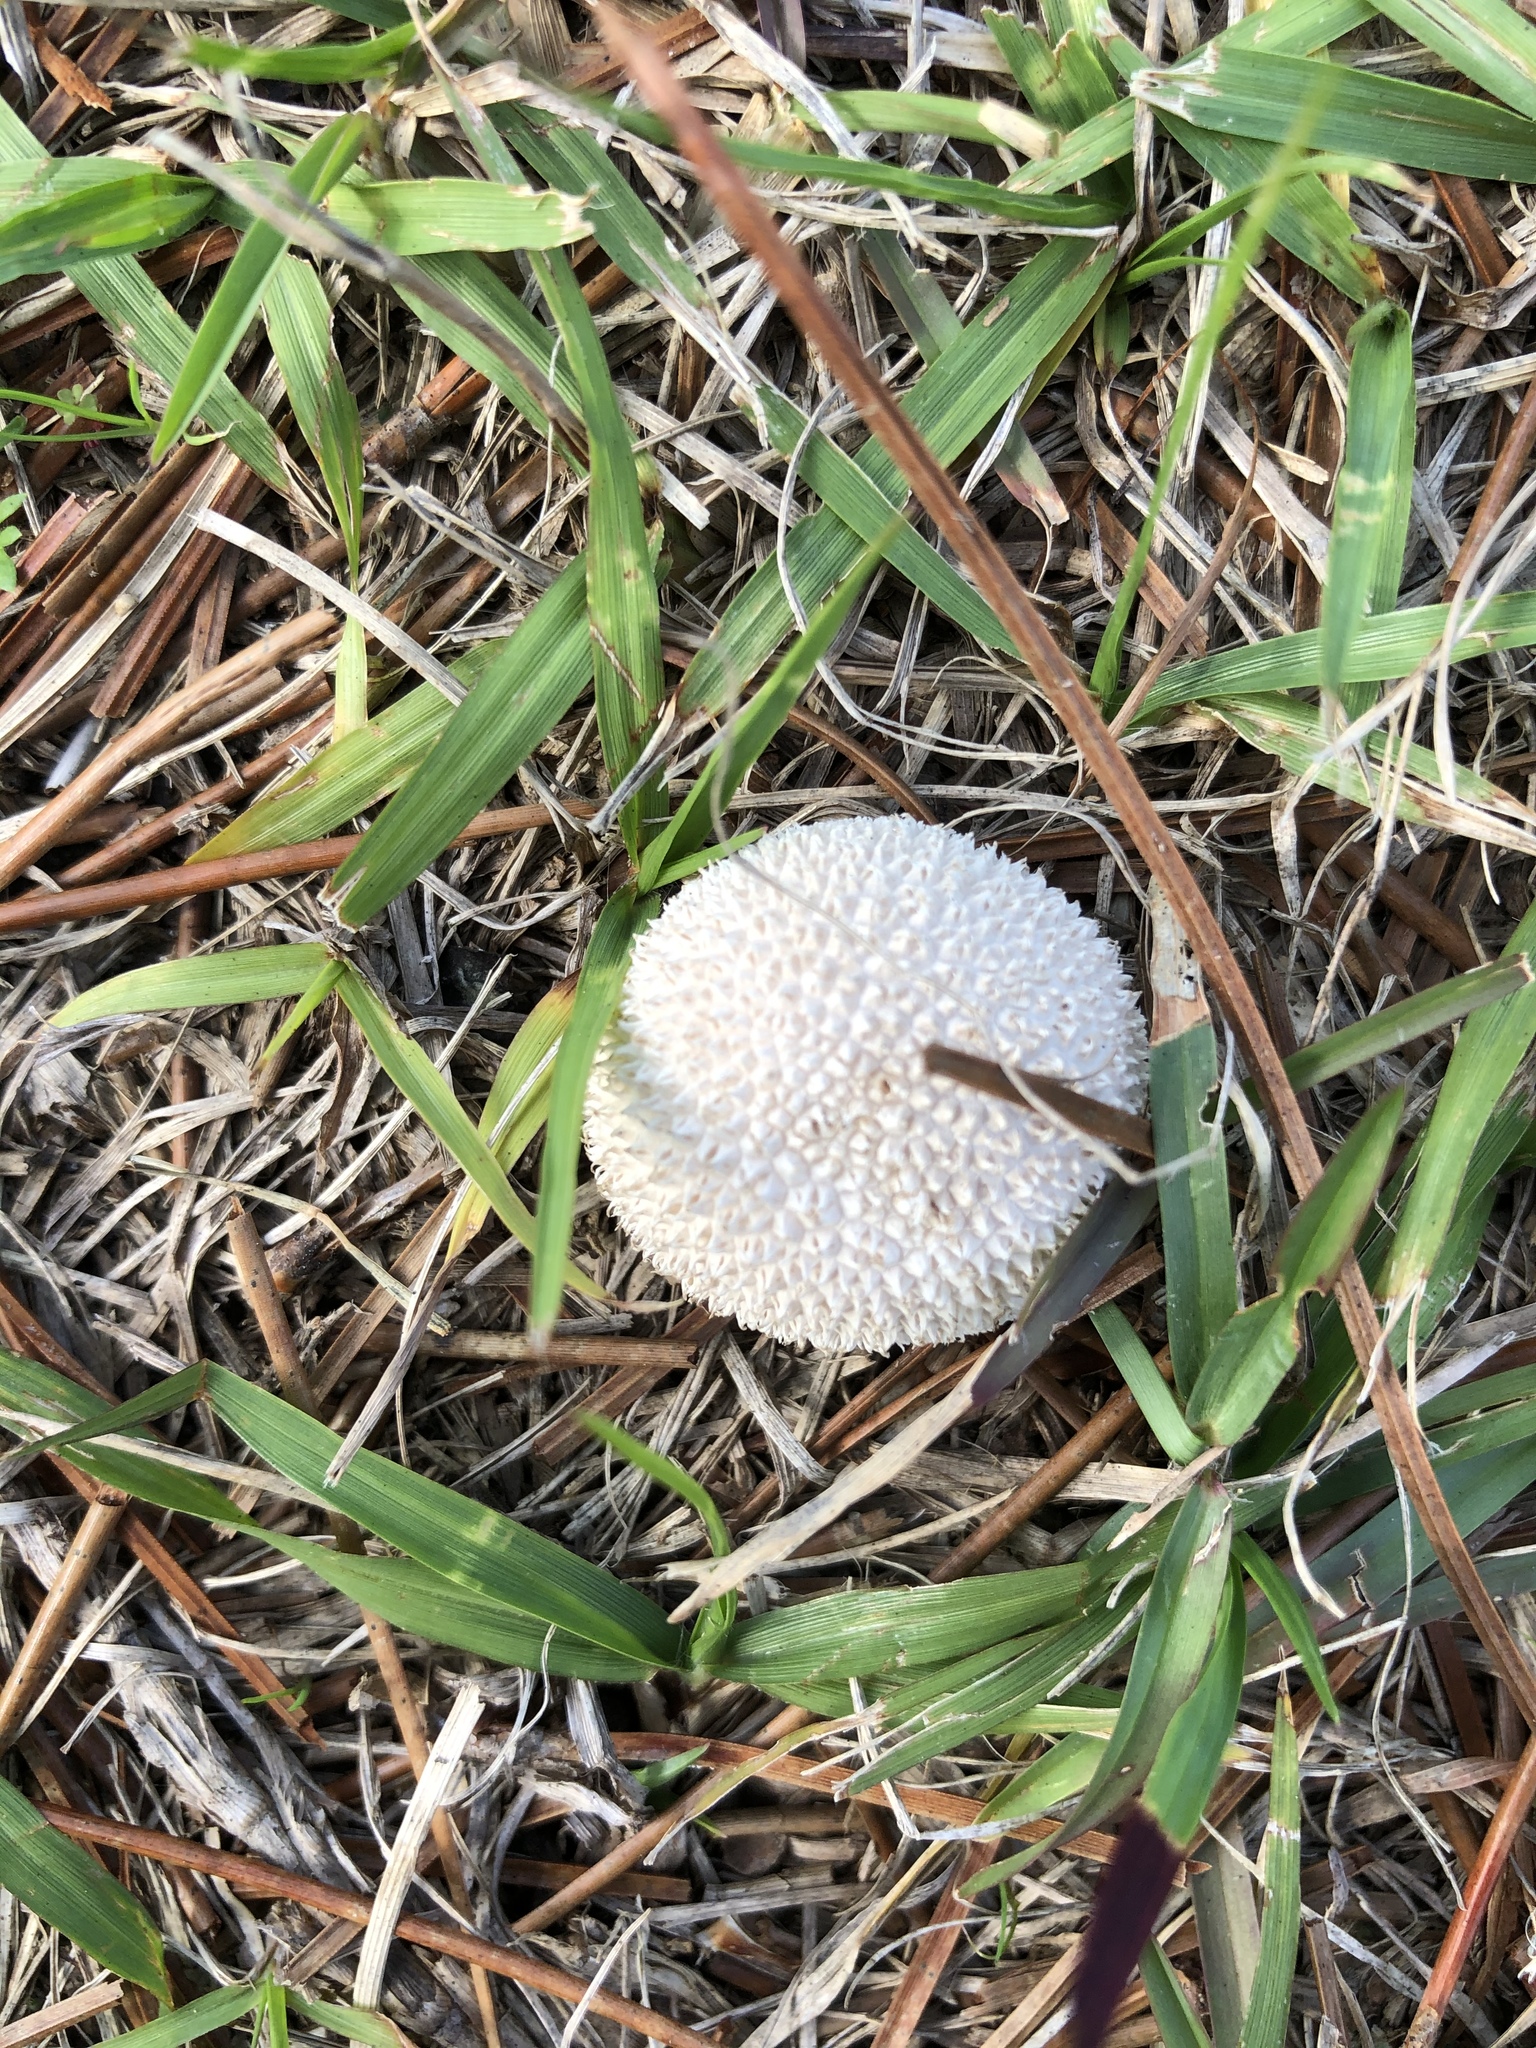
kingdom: Fungi
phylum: Basidiomycota
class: Agaricomycetes
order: Agaricales
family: Agaricaceae
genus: Lycoperdon
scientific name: Lycoperdon marginatum
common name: Peeling puffball
